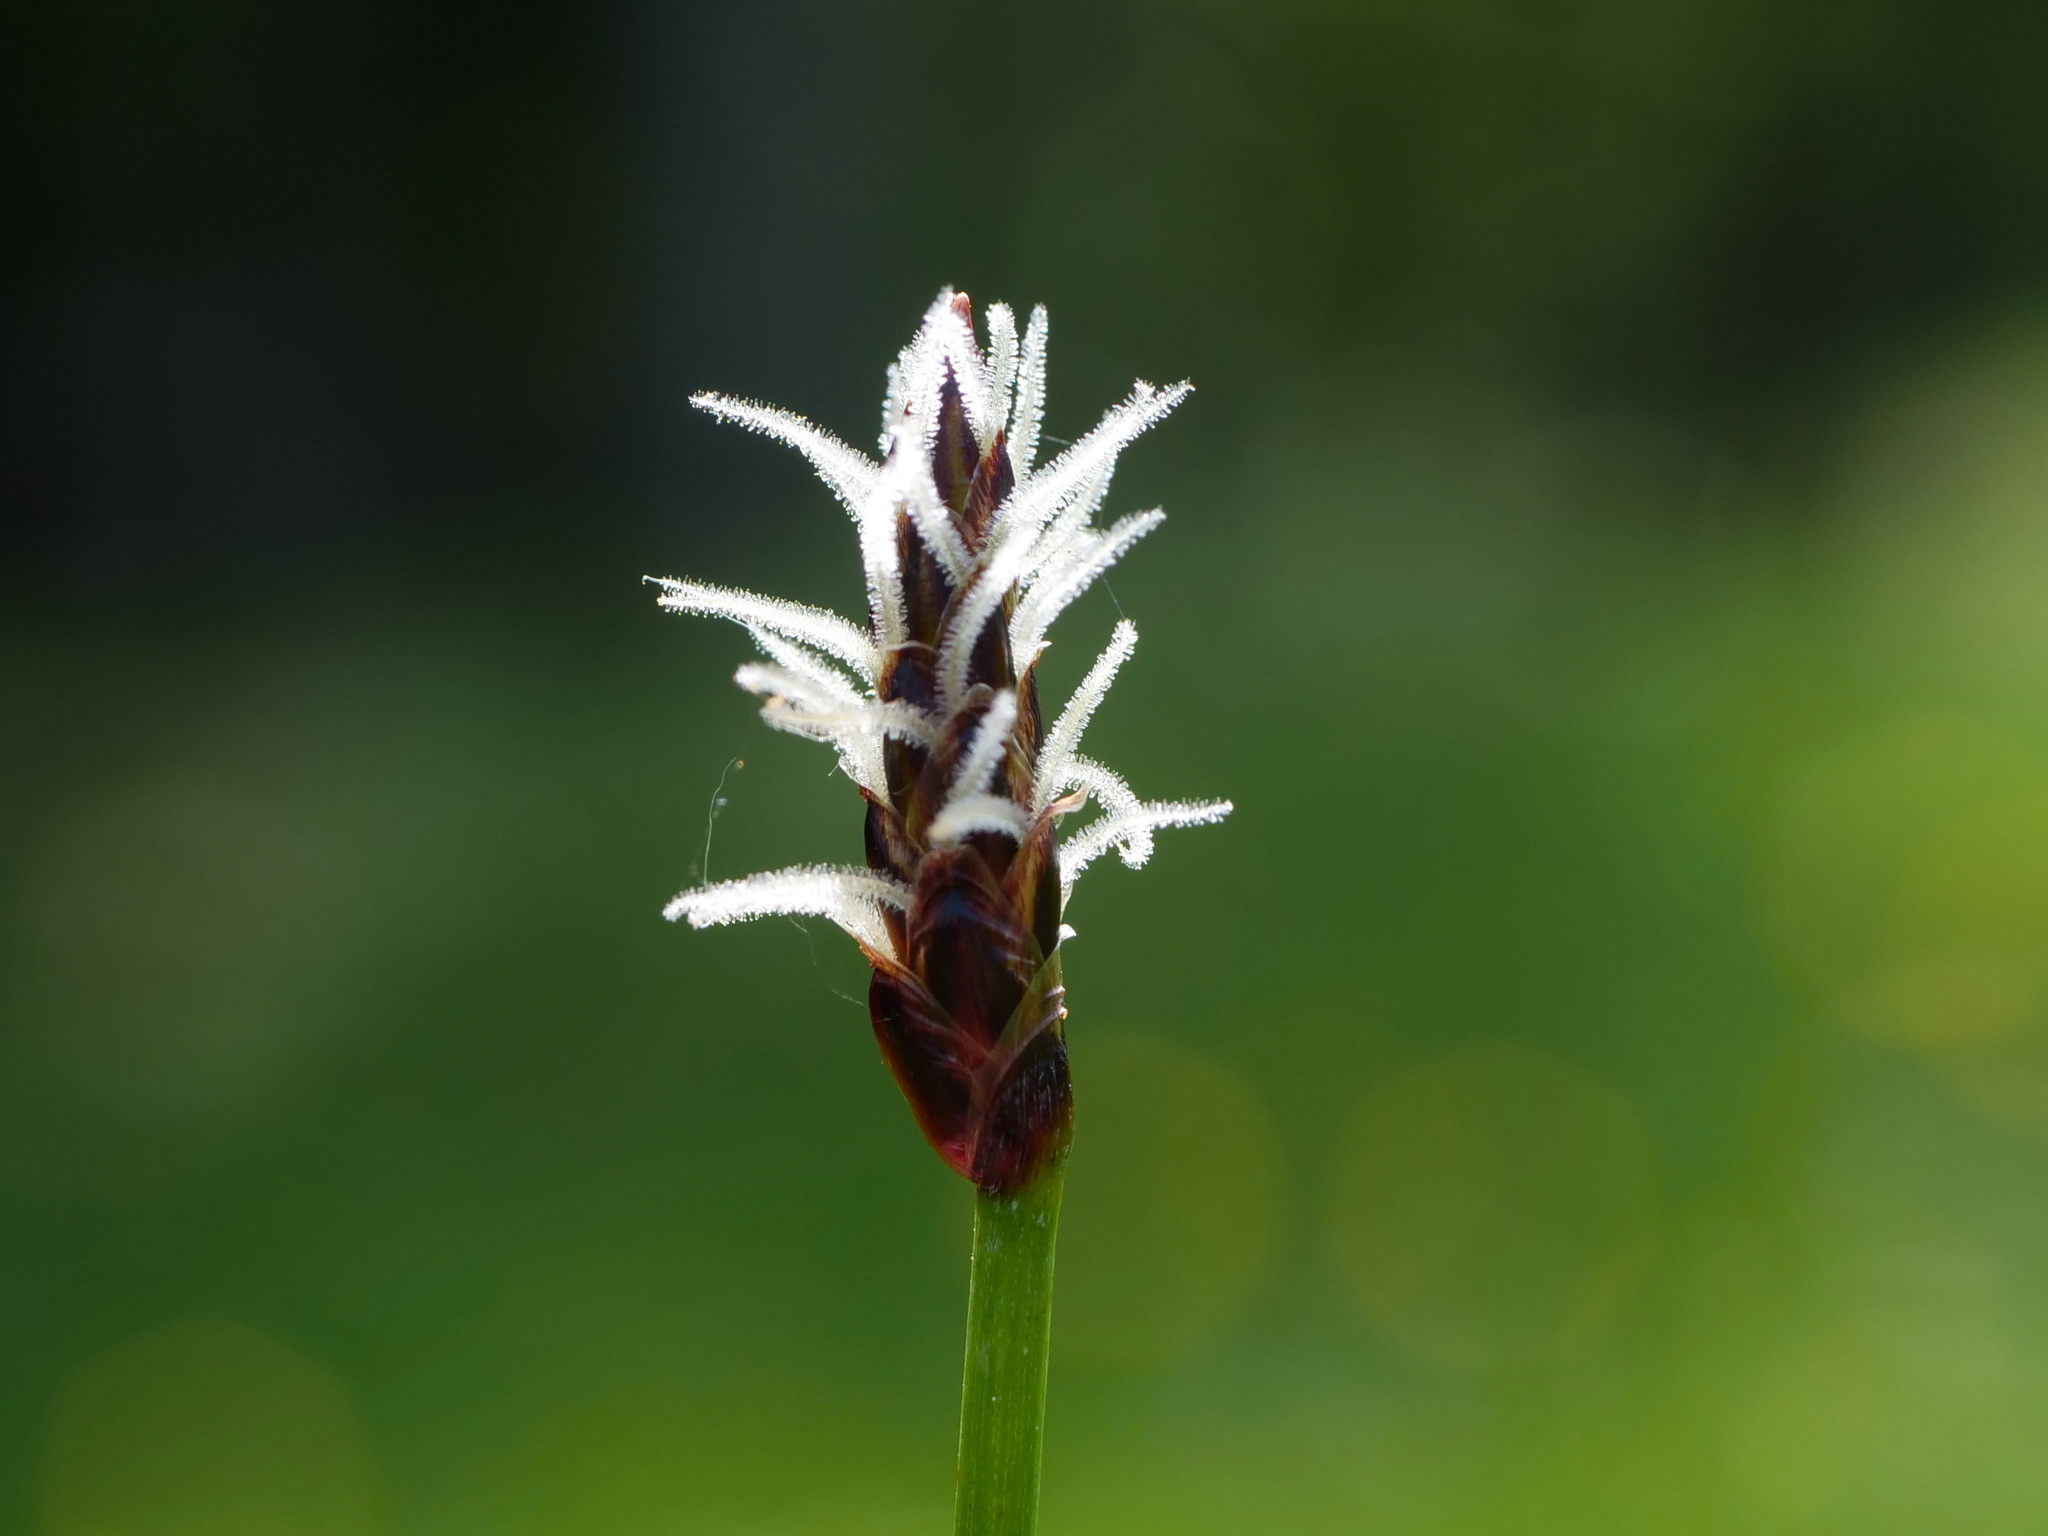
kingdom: Plantae
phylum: Tracheophyta
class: Liliopsida
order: Poales
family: Cyperaceae
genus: Eleocharis
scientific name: Eleocharis uniglumis
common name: Slender spike-rush
